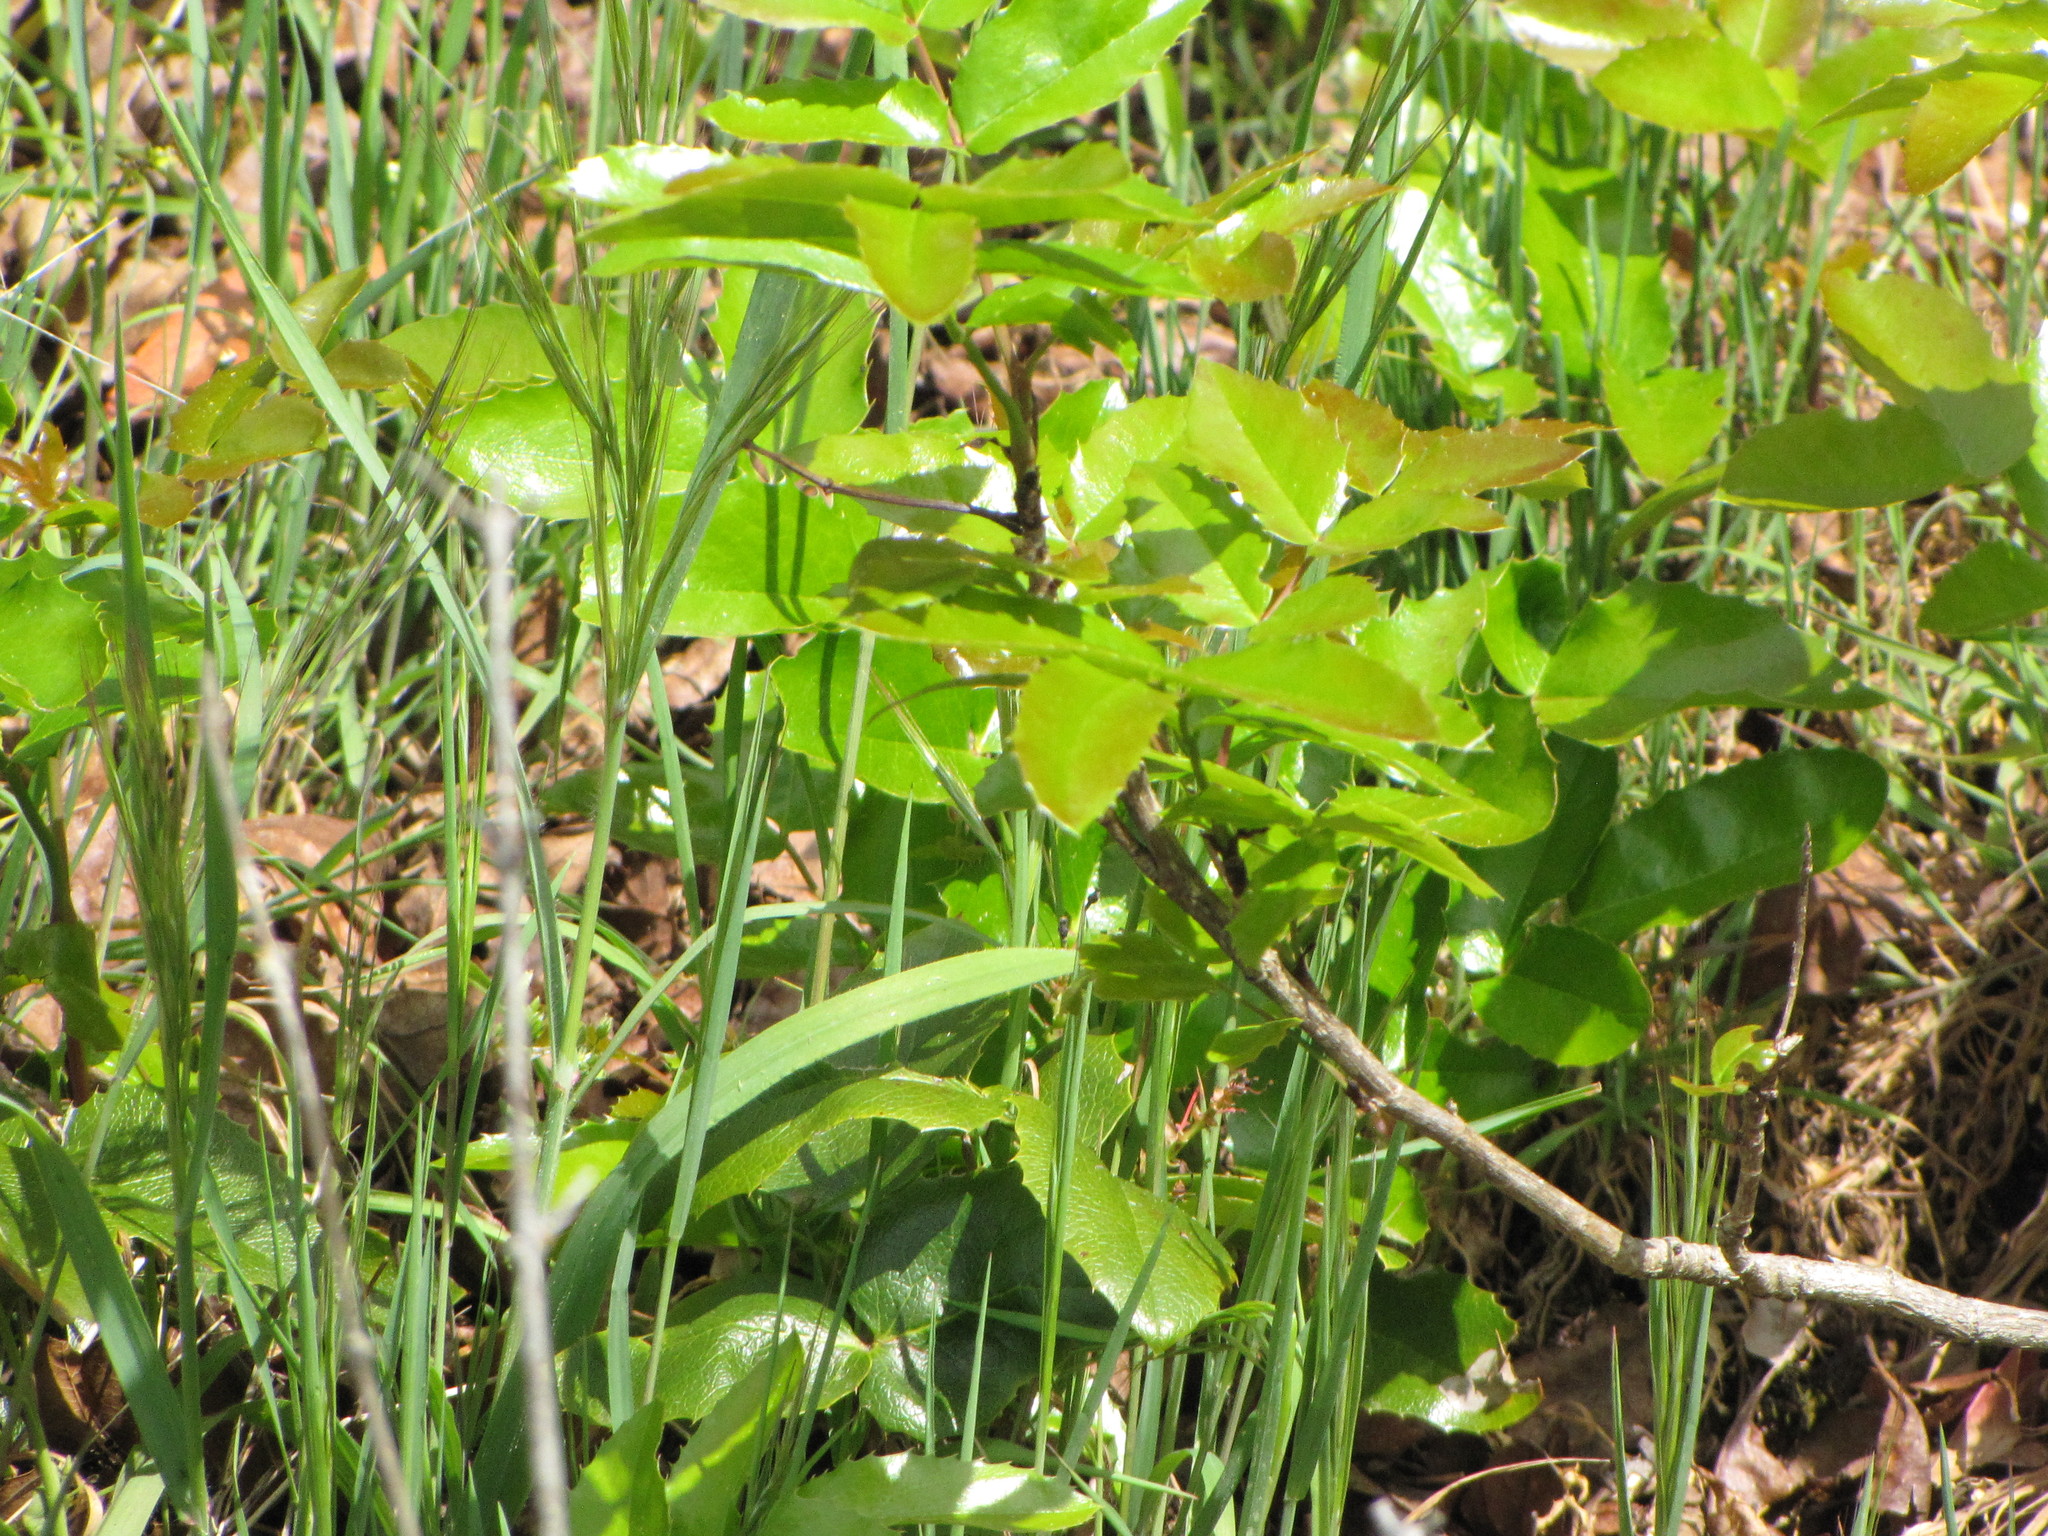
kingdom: Plantae
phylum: Tracheophyta
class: Magnoliopsida
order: Ranunculales
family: Berberidaceae
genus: Mahonia
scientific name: Mahonia aquifolium
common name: Oregon-grape
